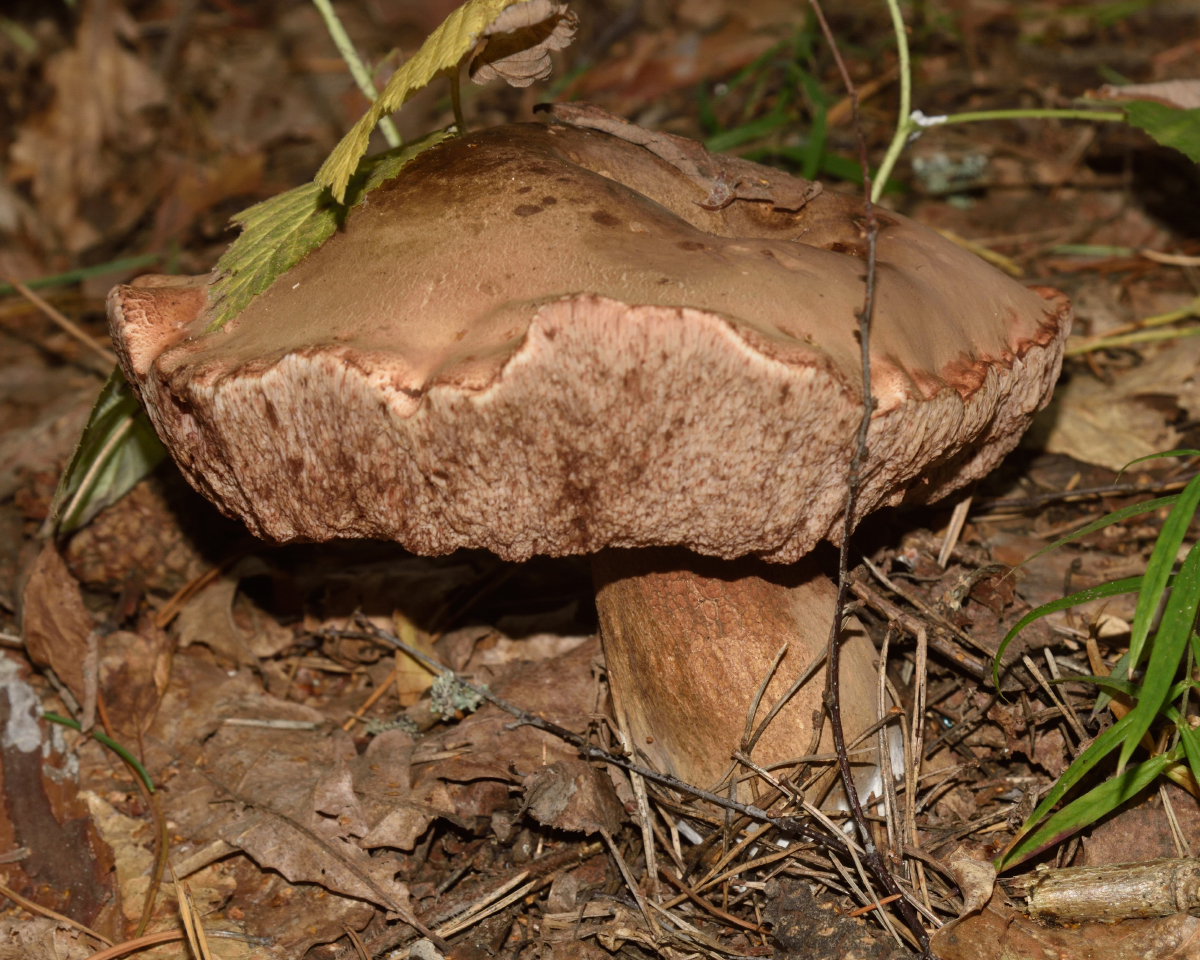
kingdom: Fungi
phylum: Basidiomycota
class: Agaricomycetes
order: Boletales
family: Boletaceae
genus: Tylopilus
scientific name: Tylopilus felleus
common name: Bitter bolete
